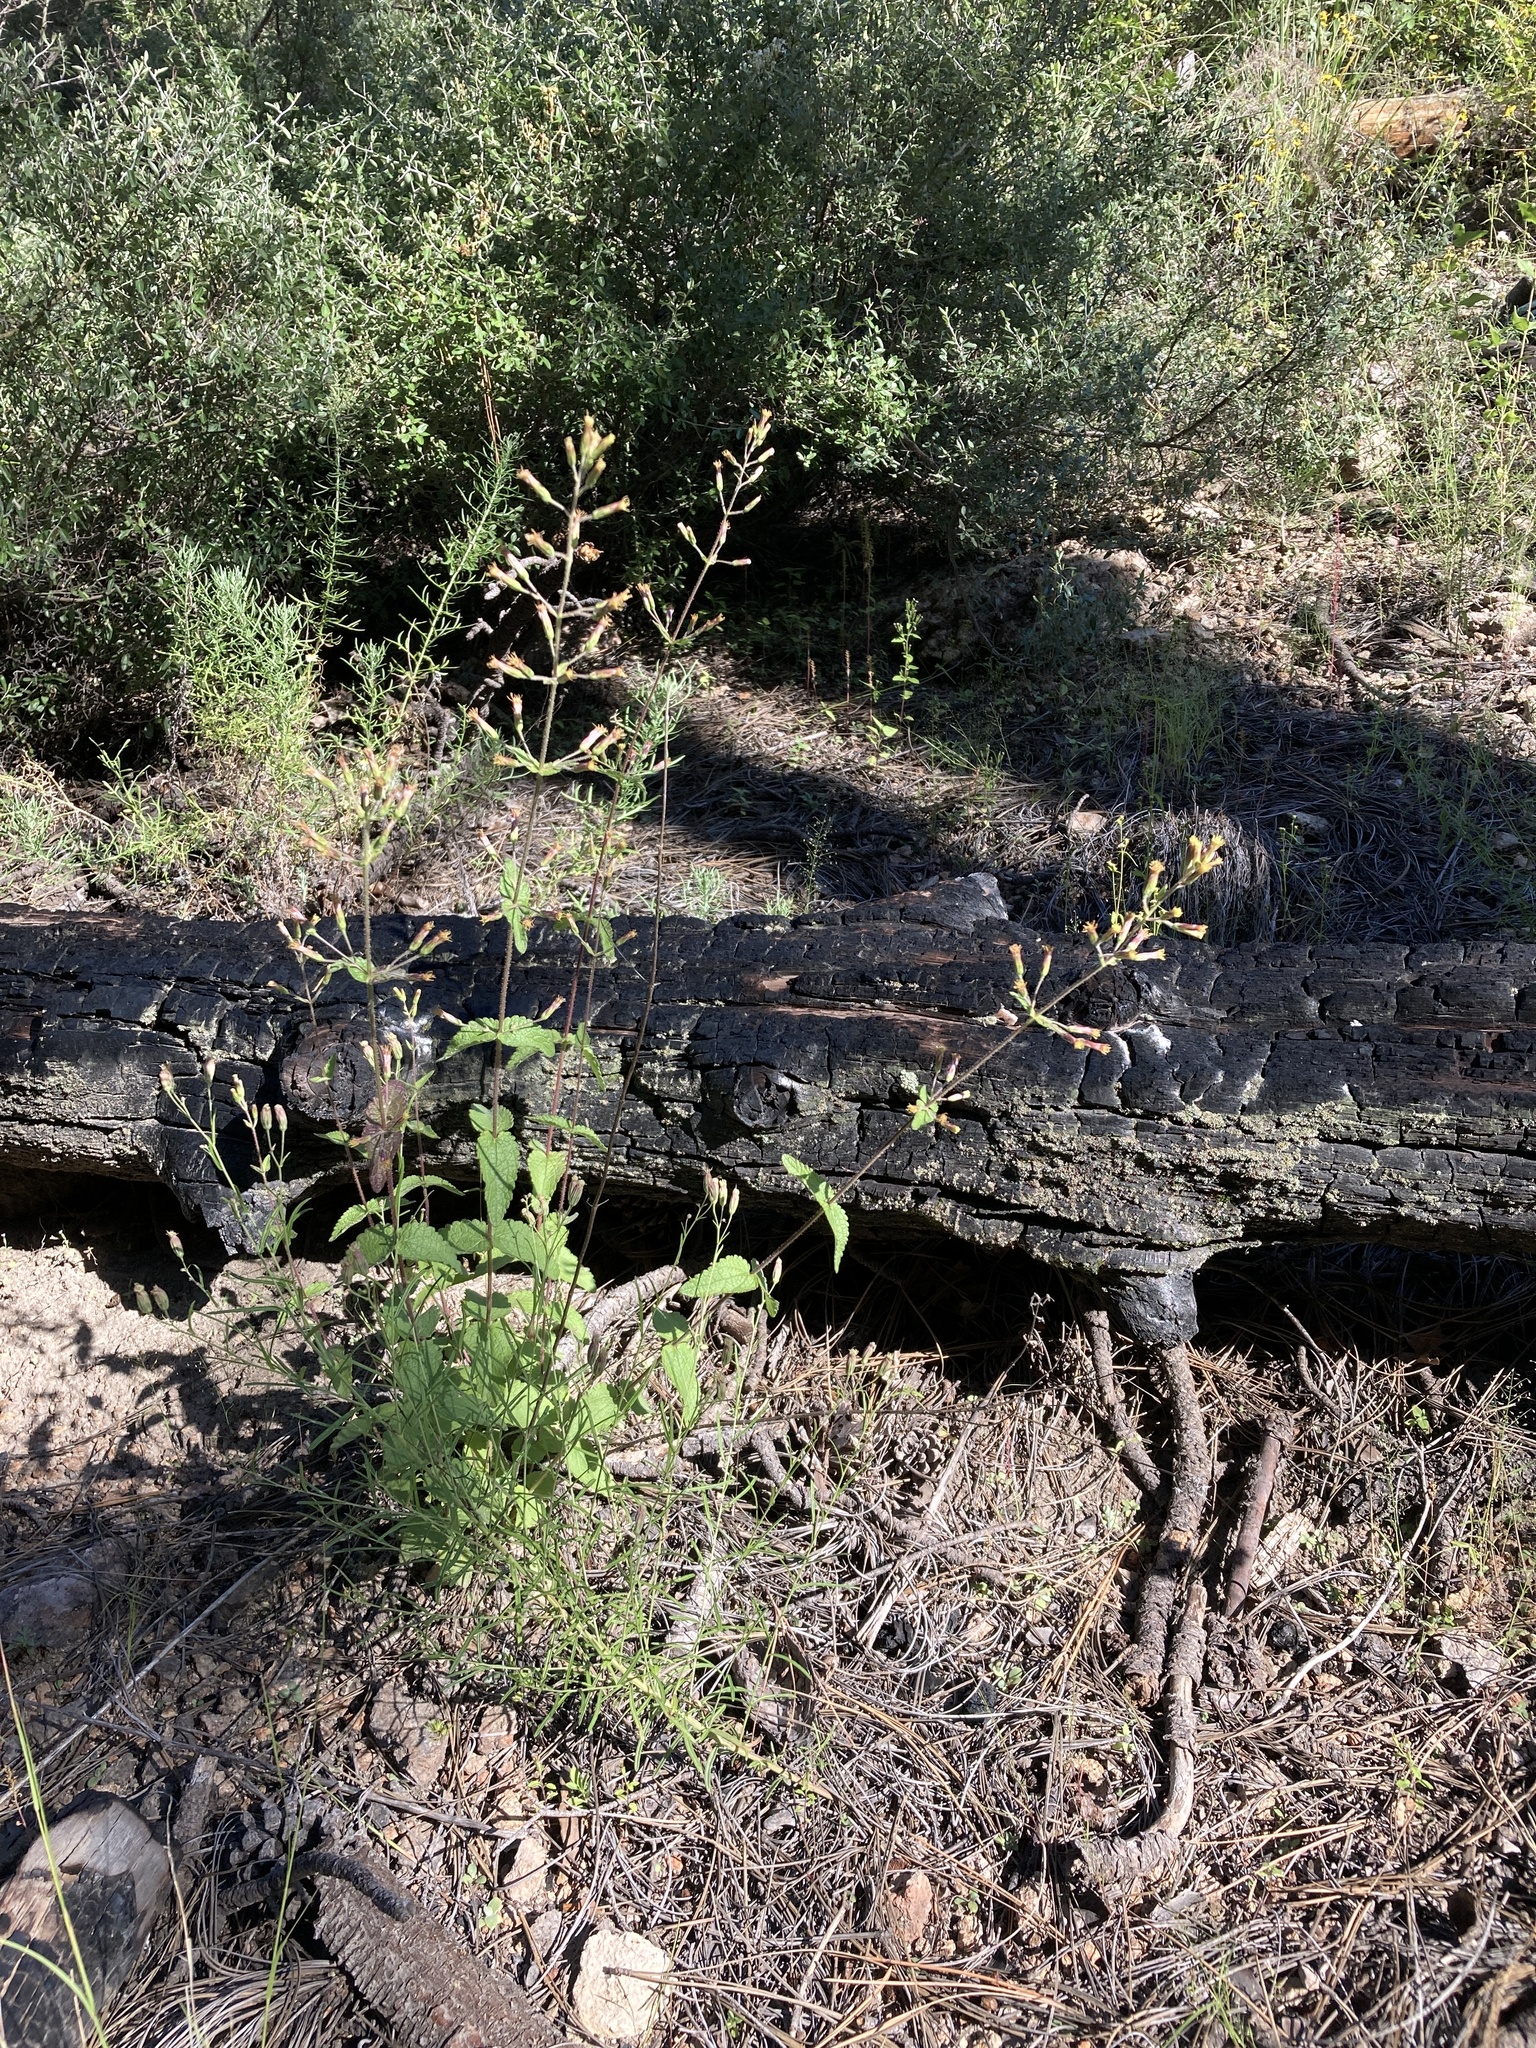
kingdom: Plantae
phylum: Tracheophyta
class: Magnoliopsida
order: Asterales
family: Asteraceae
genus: Brickellia
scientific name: Brickellia betonicifolia
